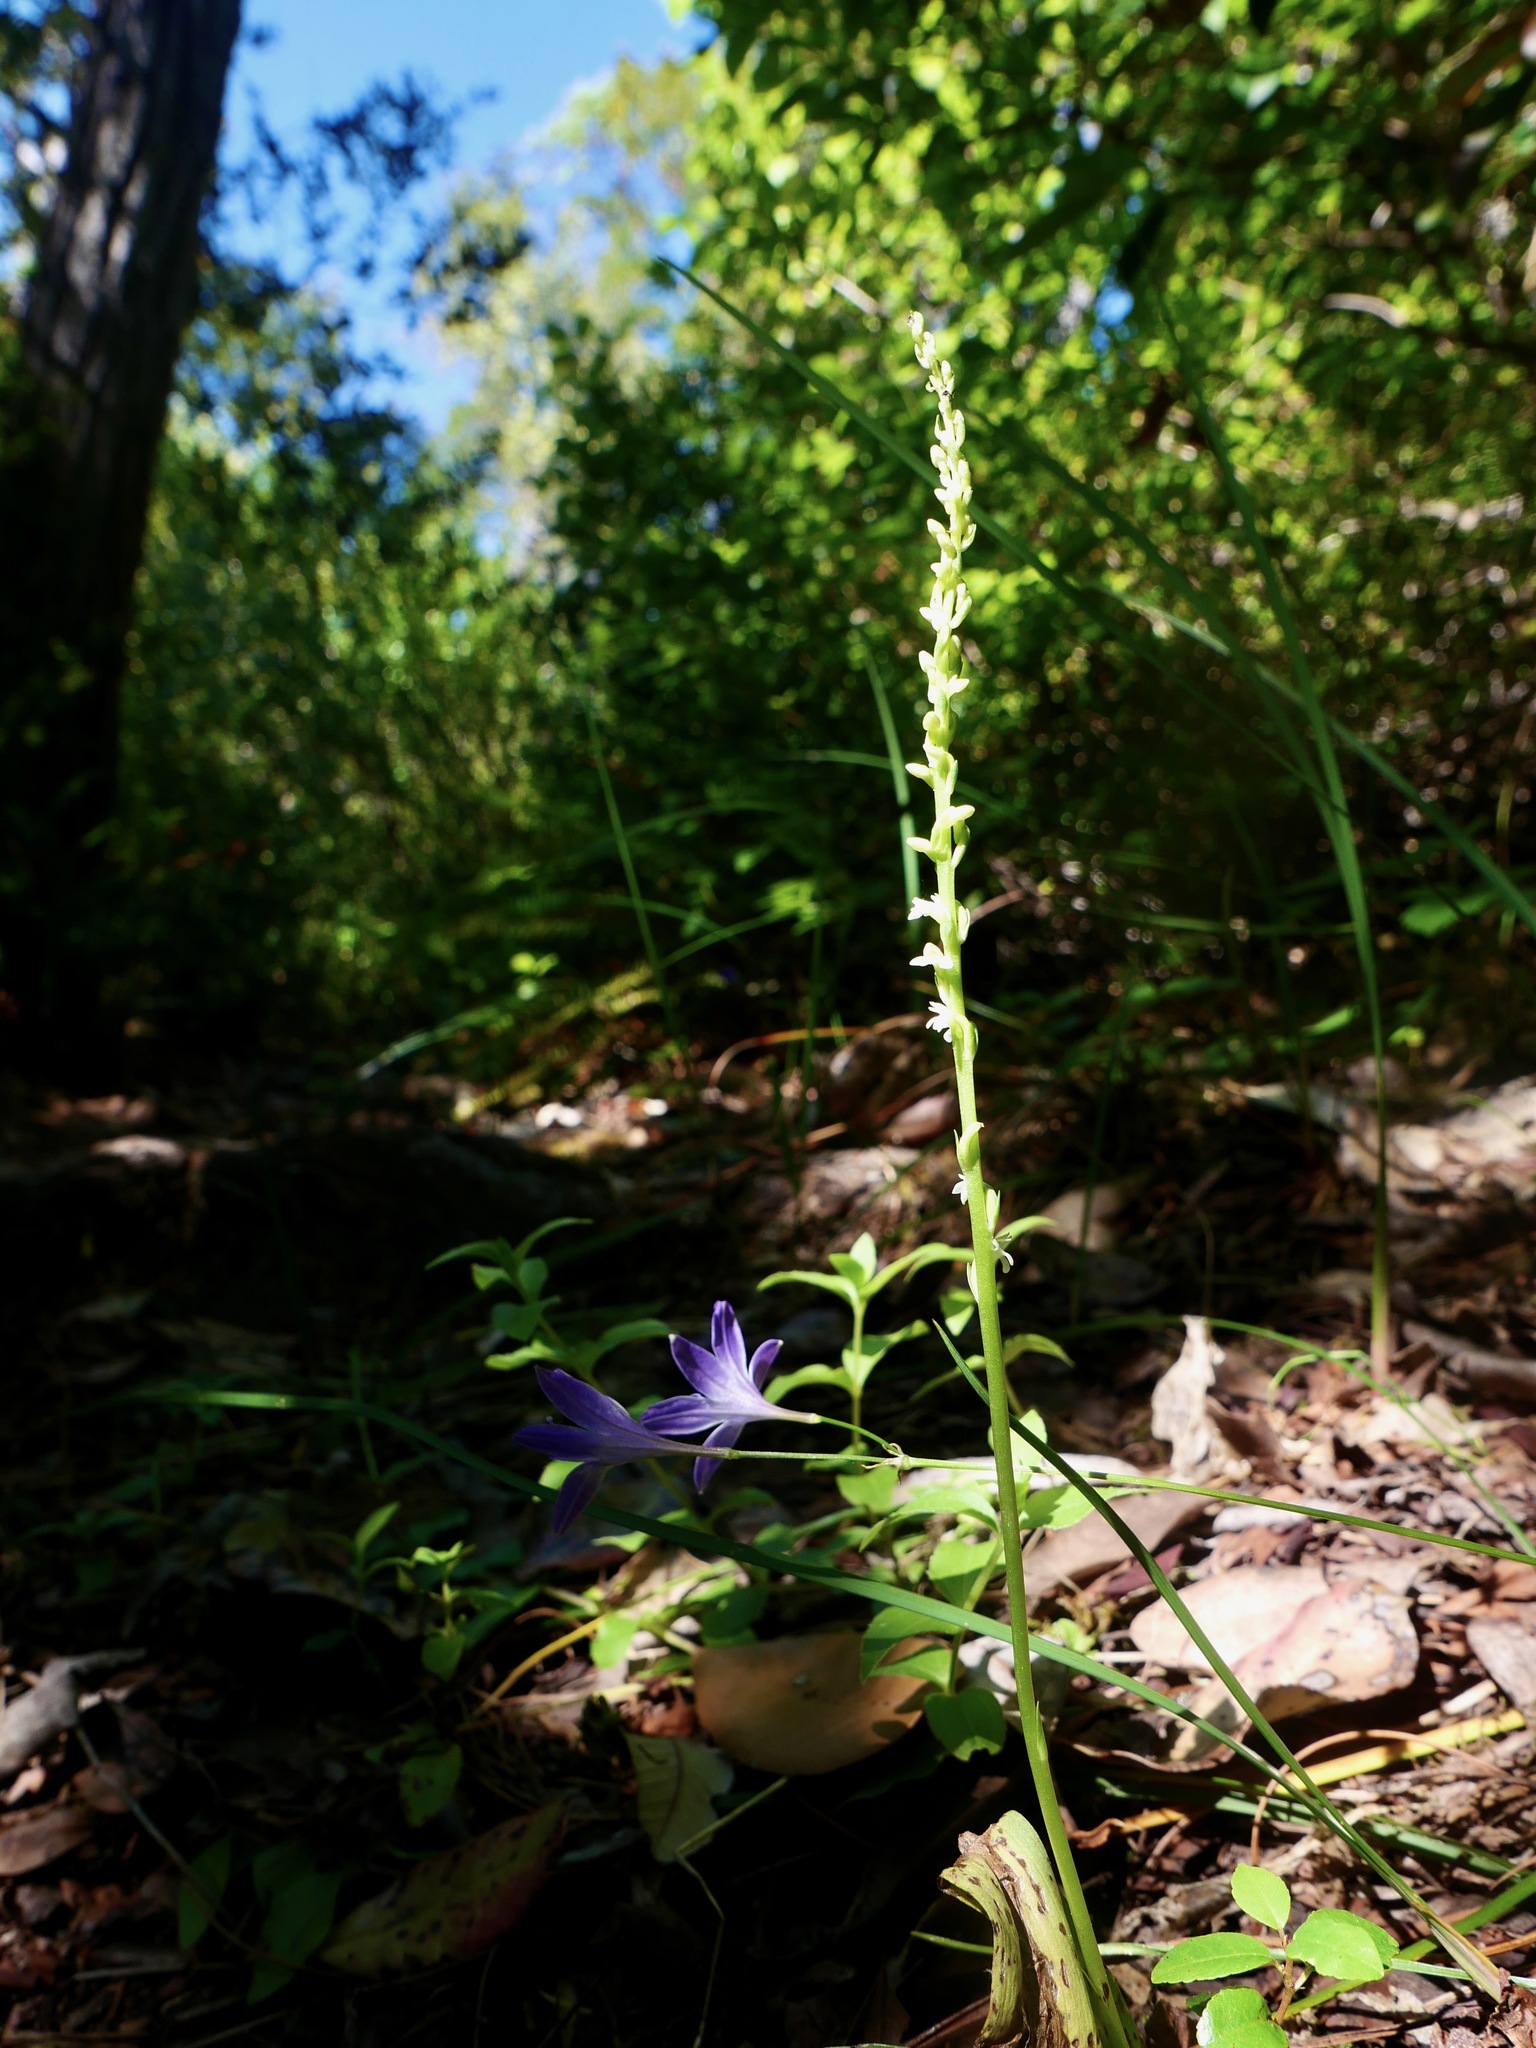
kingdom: Plantae
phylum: Tracheophyta
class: Liliopsida
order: Asparagales
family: Orchidaceae
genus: Platanthera
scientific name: Platanthera ephemerantha
